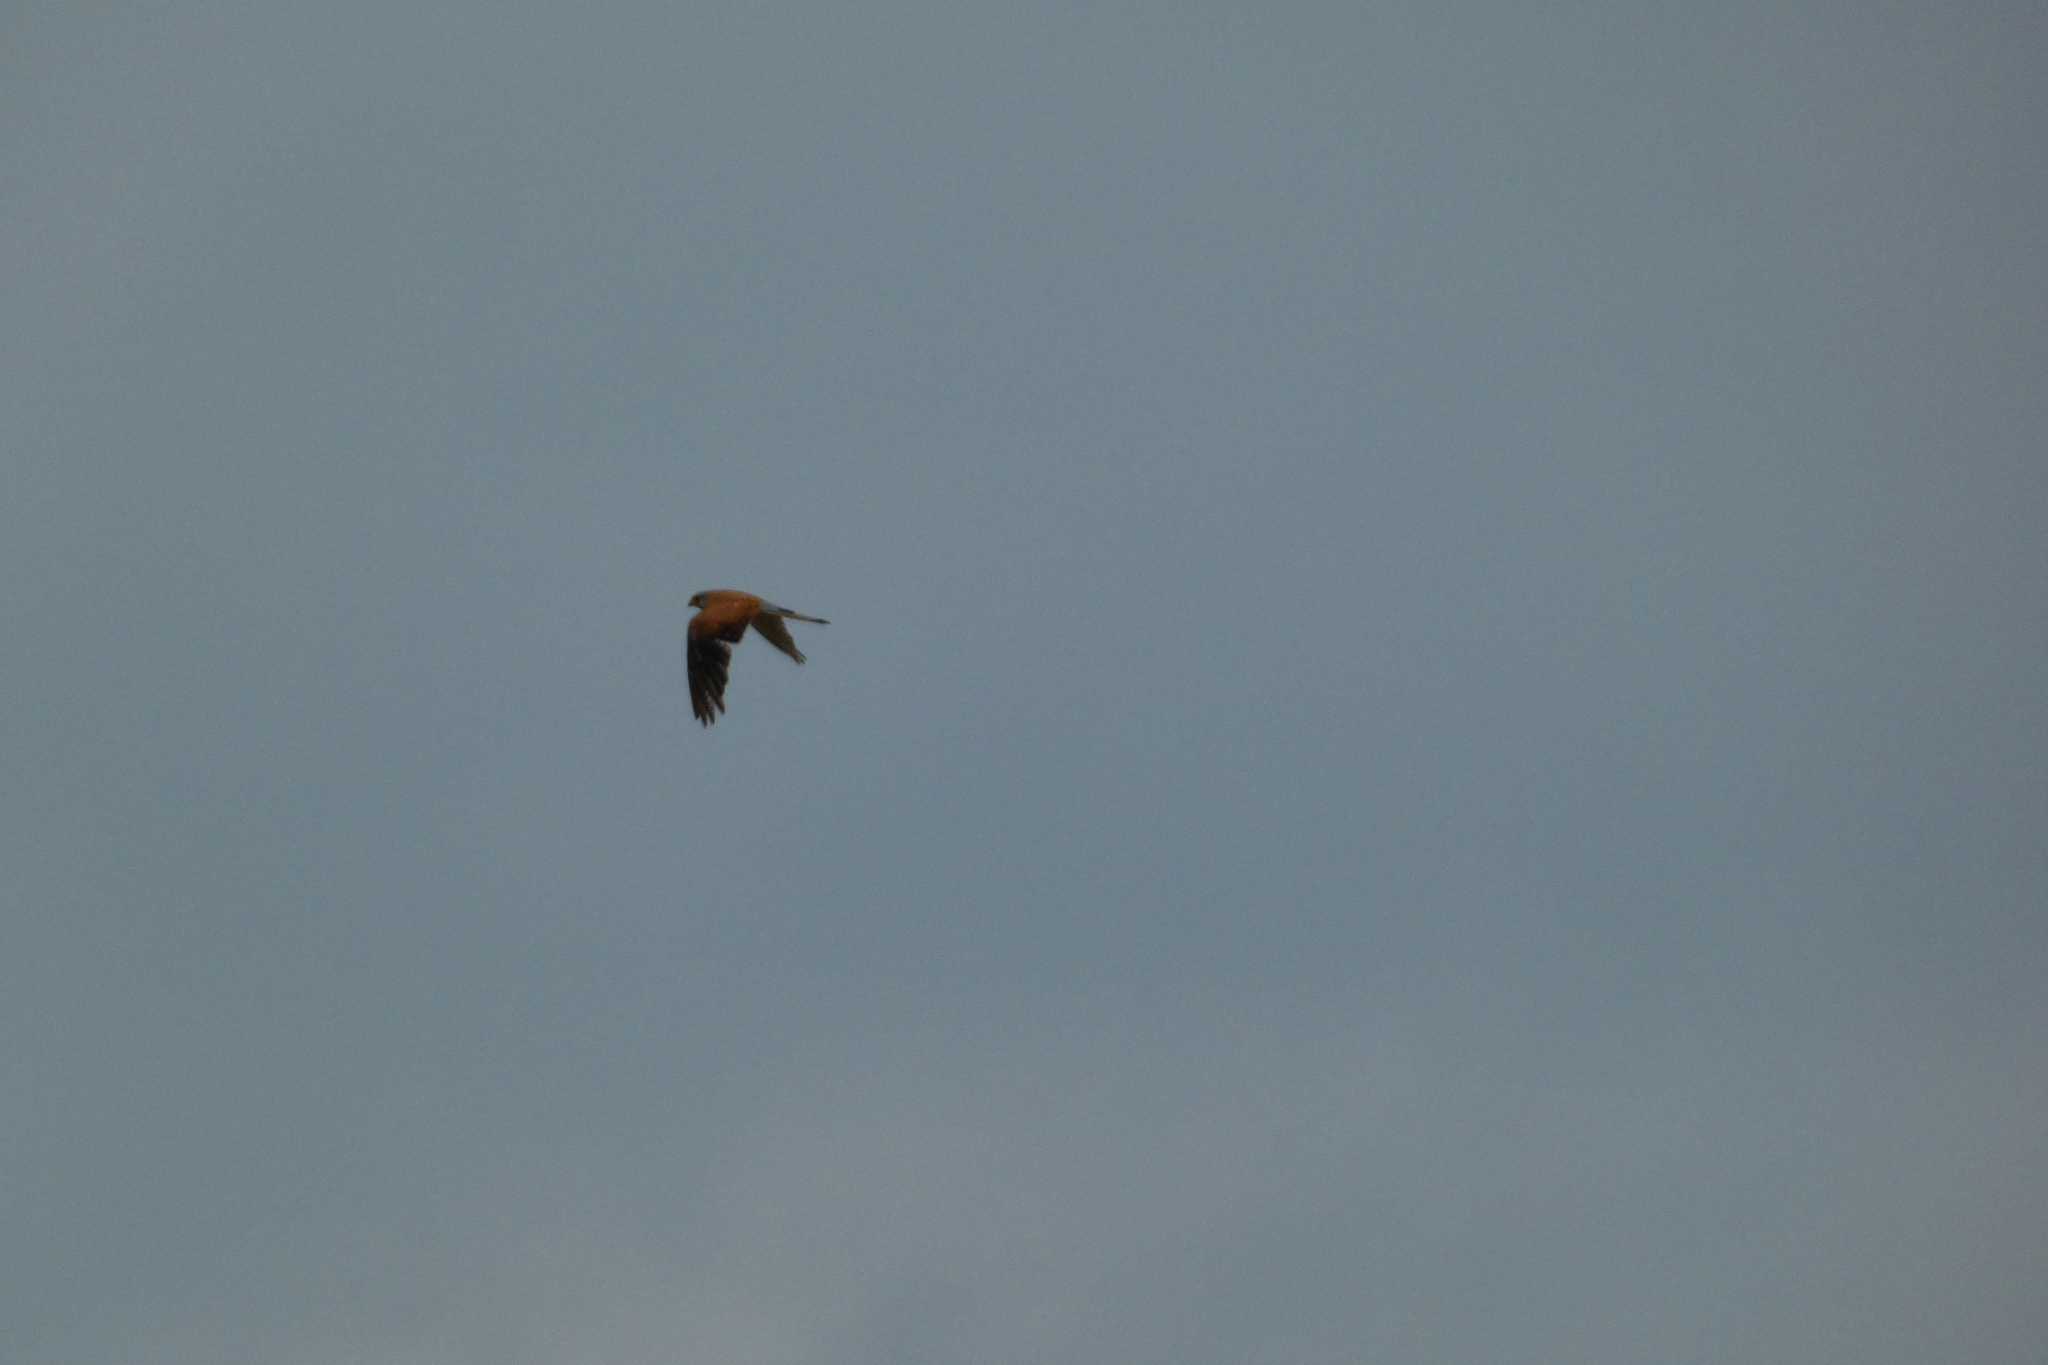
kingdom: Animalia
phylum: Chordata
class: Aves
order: Falconiformes
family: Falconidae
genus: Falco
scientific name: Falco tinnunculus
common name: Common kestrel
